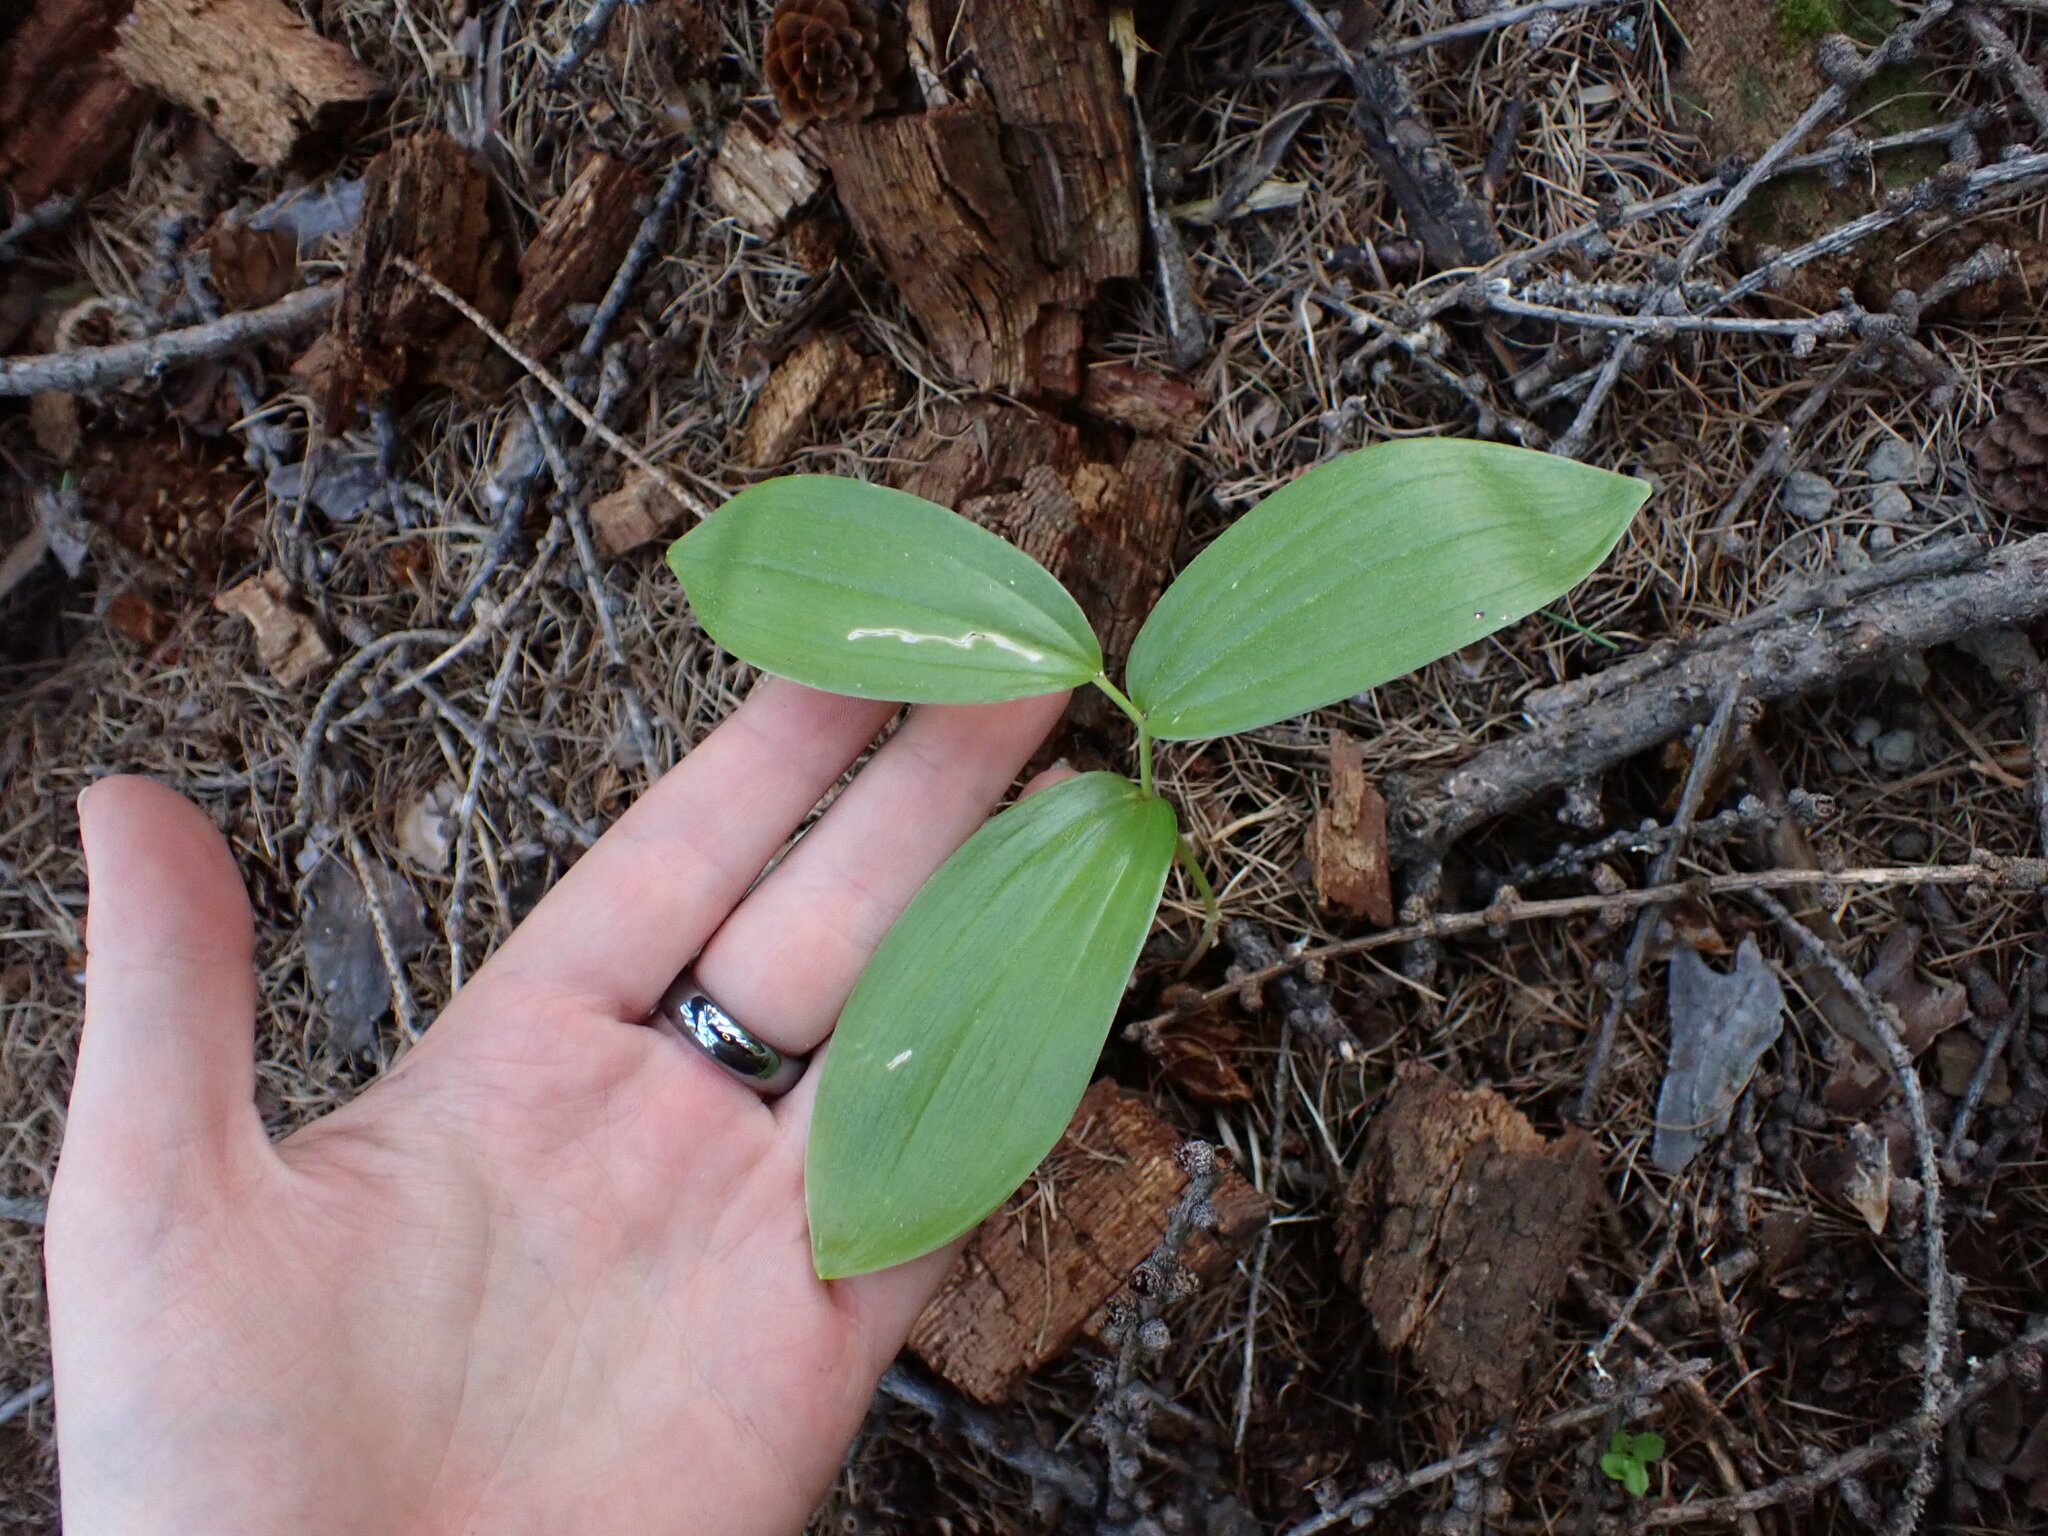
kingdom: Plantae
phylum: Tracheophyta
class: Liliopsida
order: Asparagales
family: Asparagaceae
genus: Maianthemum
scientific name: Maianthemum racemosum
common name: False spikenard
